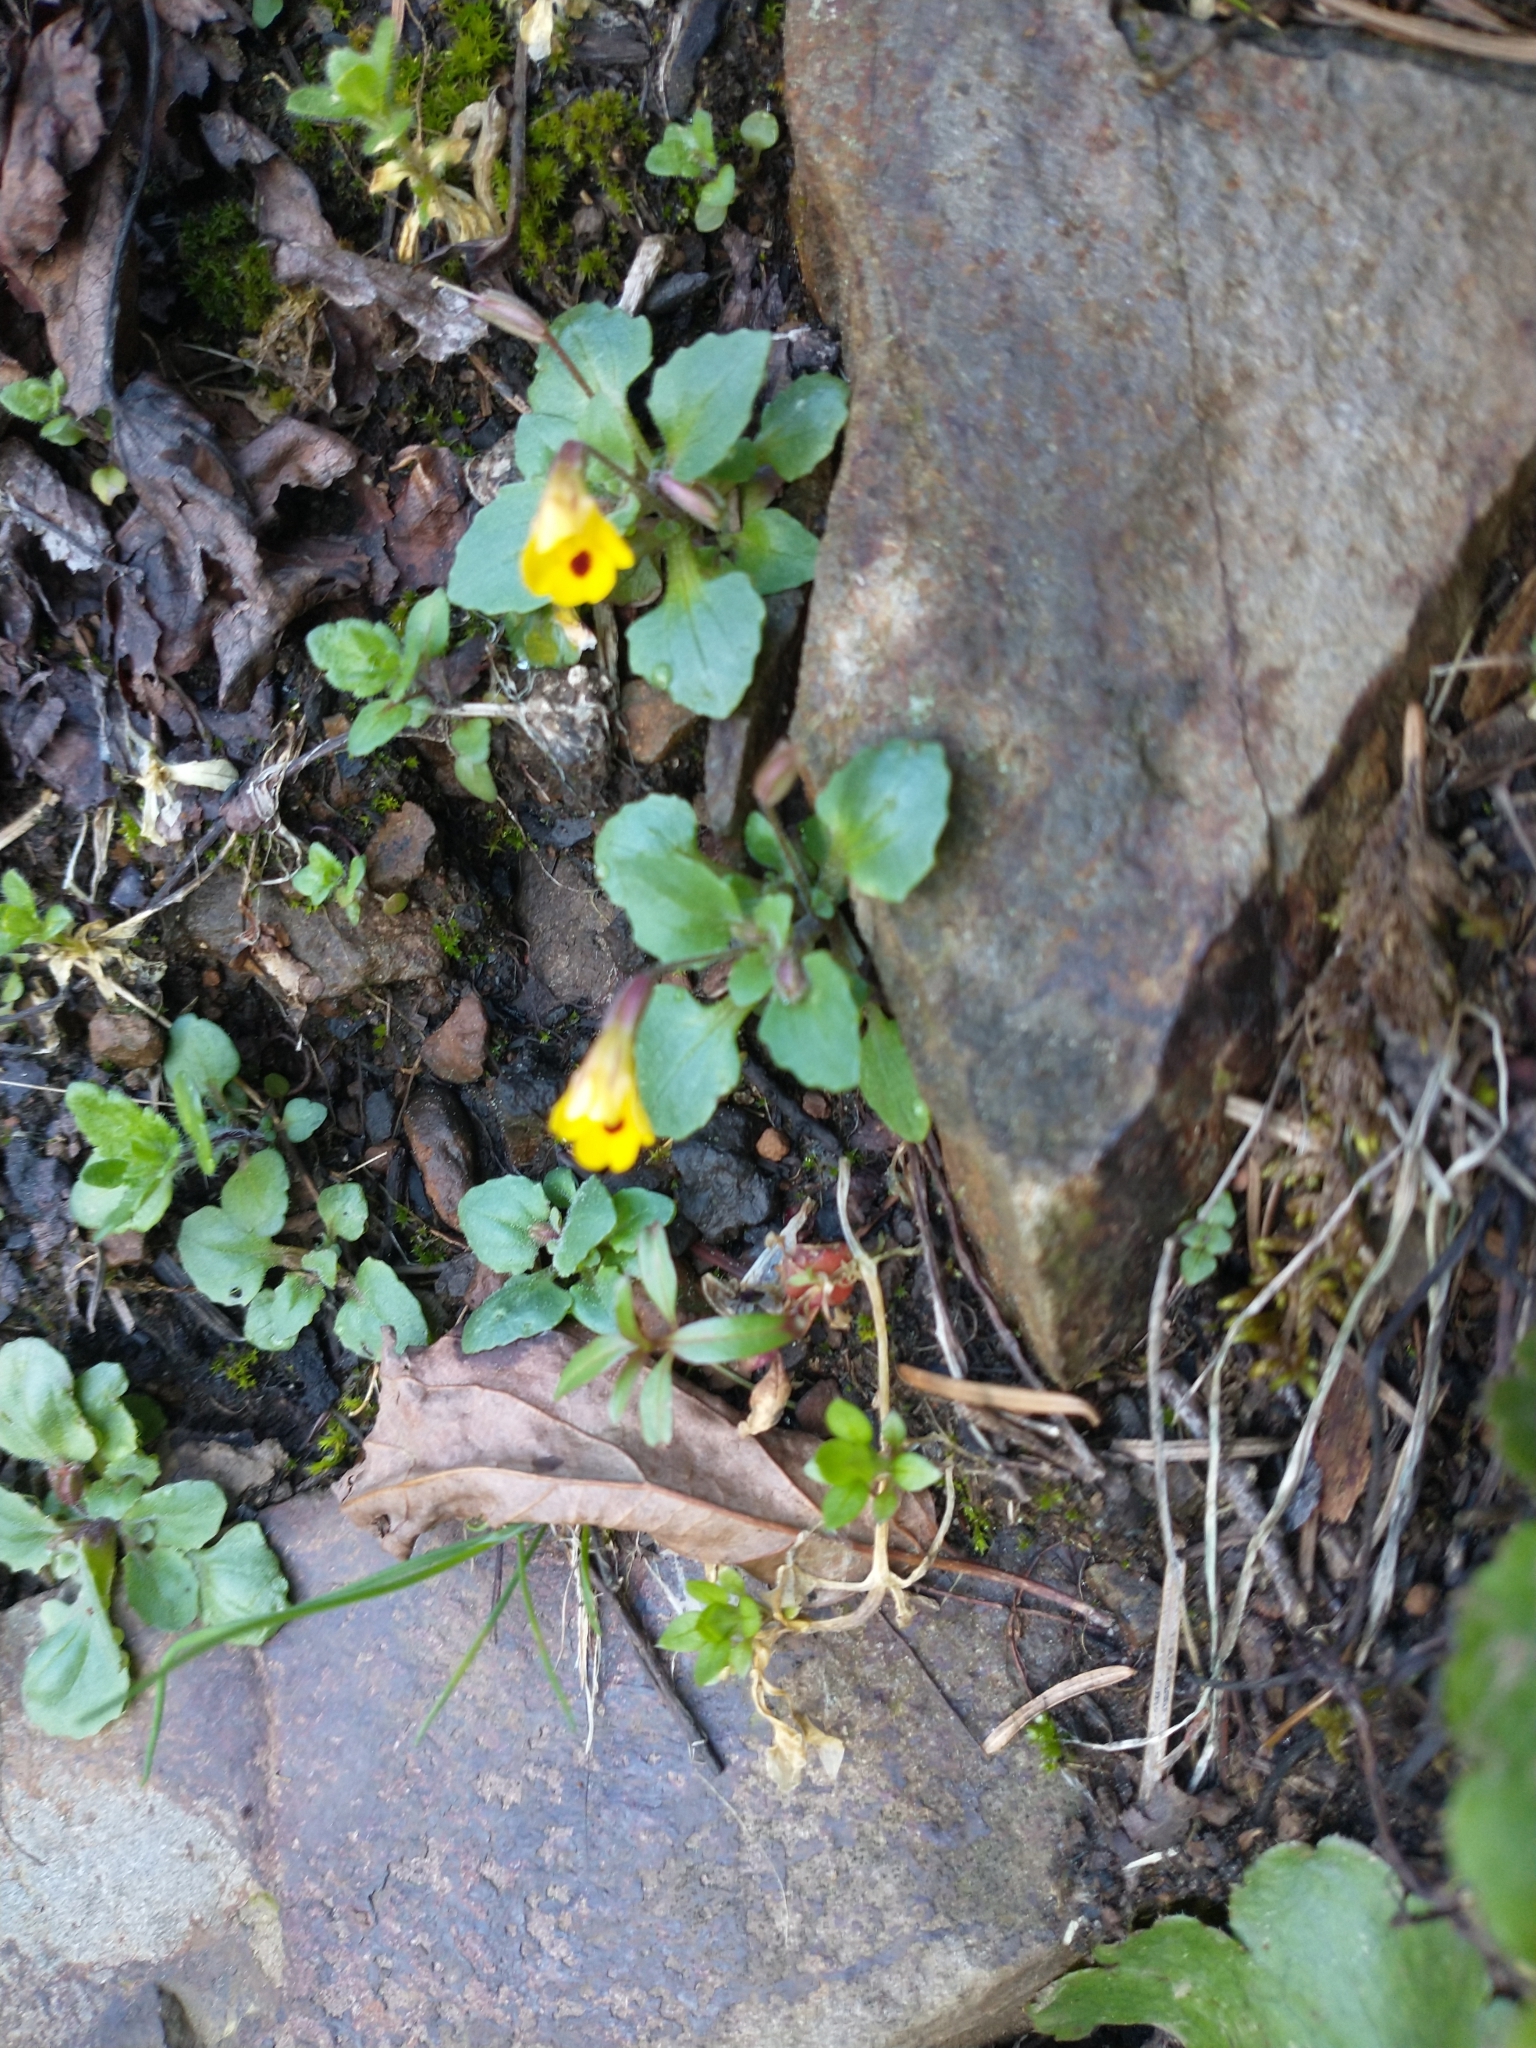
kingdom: Plantae
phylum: Tracheophyta
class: Magnoliopsida
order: Lamiales
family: Phrymaceae
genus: Erythranthe
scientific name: Erythranthe alsinoides
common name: Chickweed monkeyflower
